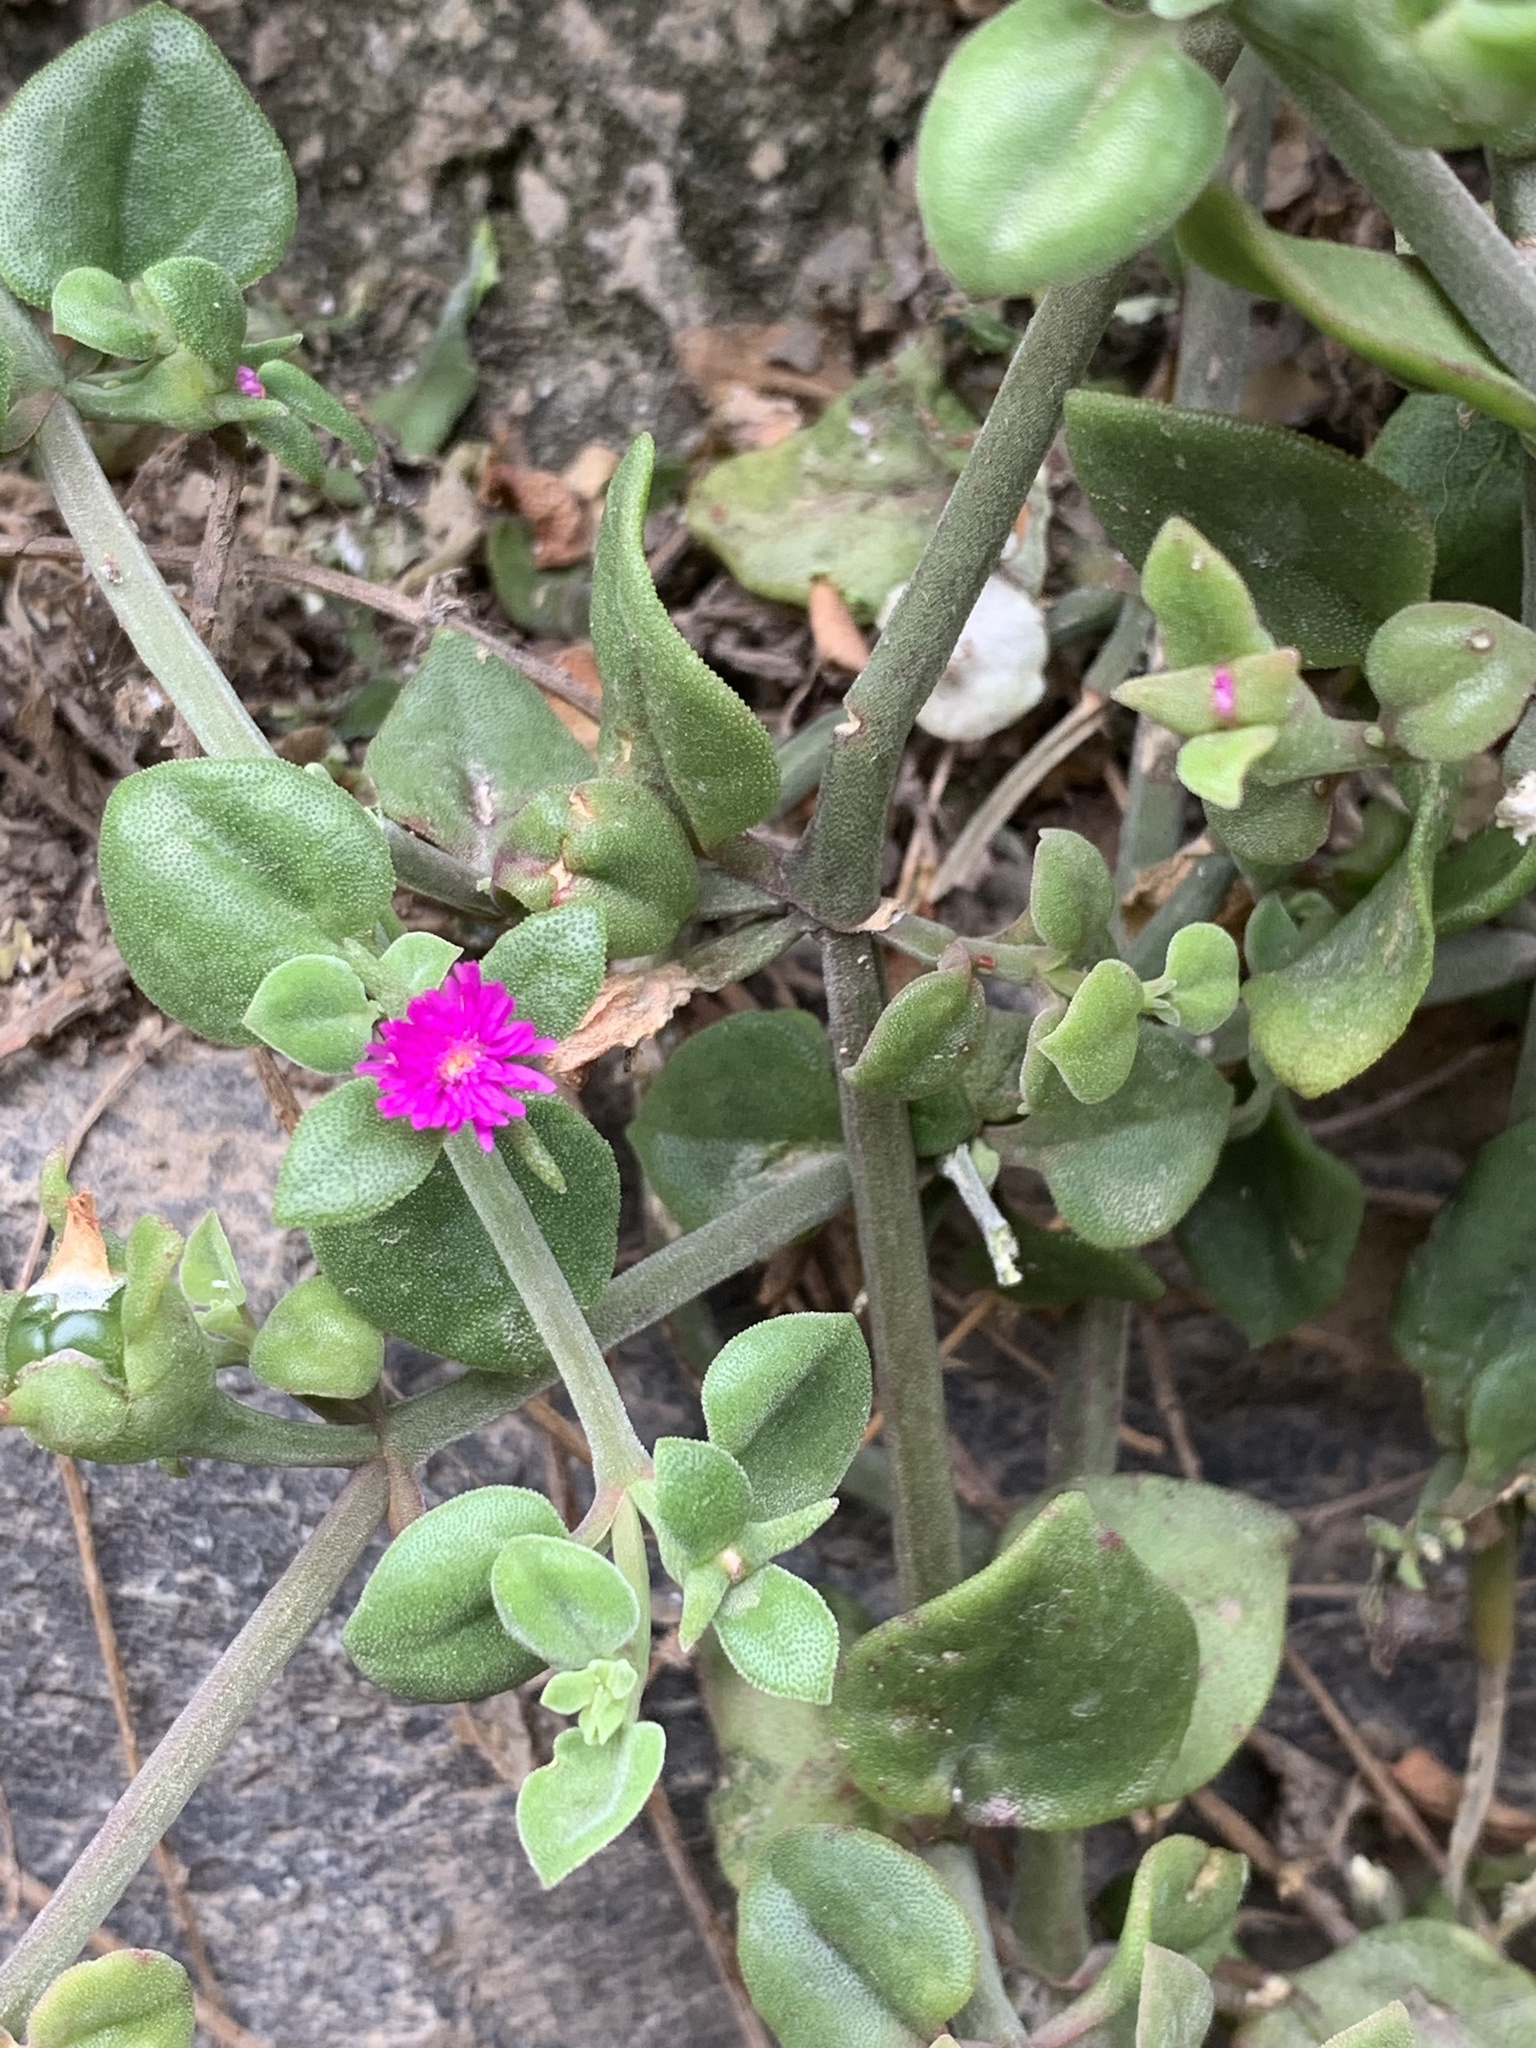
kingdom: Plantae
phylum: Tracheophyta
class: Magnoliopsida
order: Caryophyllales
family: Aizoaceae
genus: Mesembryanthemum
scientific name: Mesembryanthemum cordifolium
